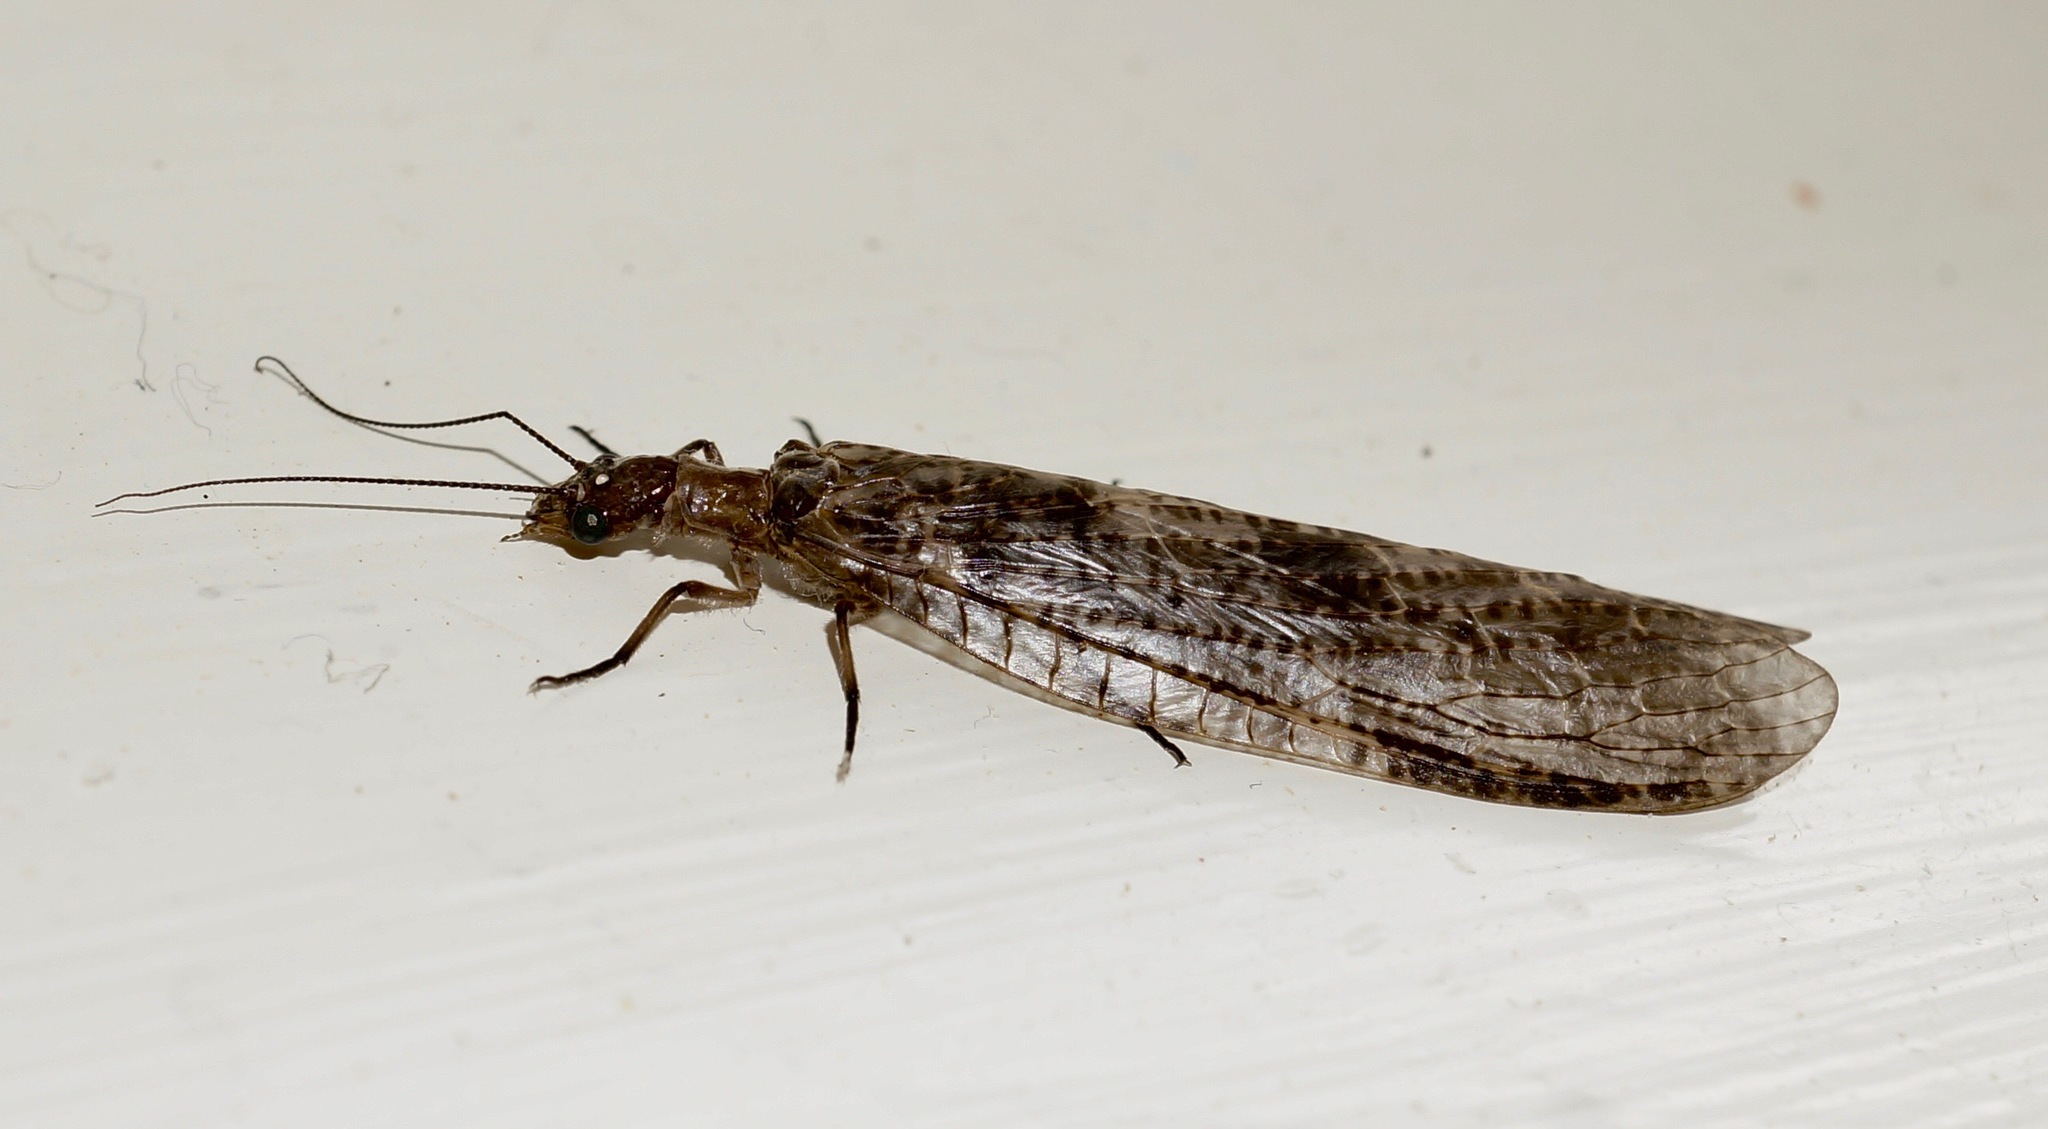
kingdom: Animalia
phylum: Arthropoda
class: Insecta
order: Megaloptera
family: Corydalidae
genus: Archichauliodes
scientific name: Archichauliodes diversus
